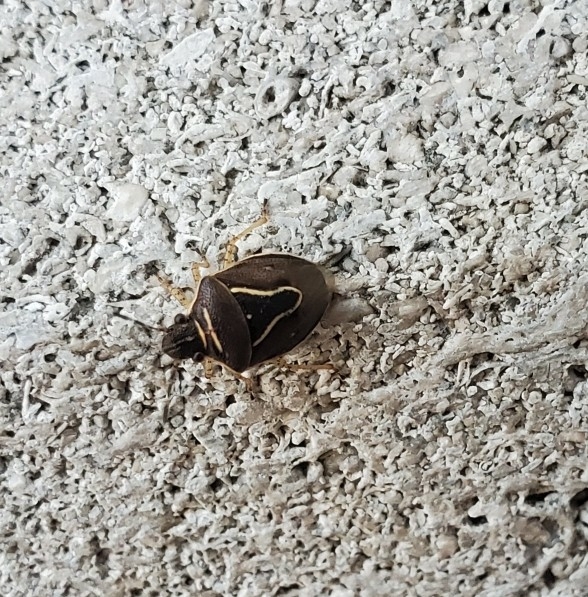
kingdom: Animalia
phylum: Arthropoda
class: Insecta
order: Hemiptera
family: Pentatomidae
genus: Mormidea
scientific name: Mormidea lugens
